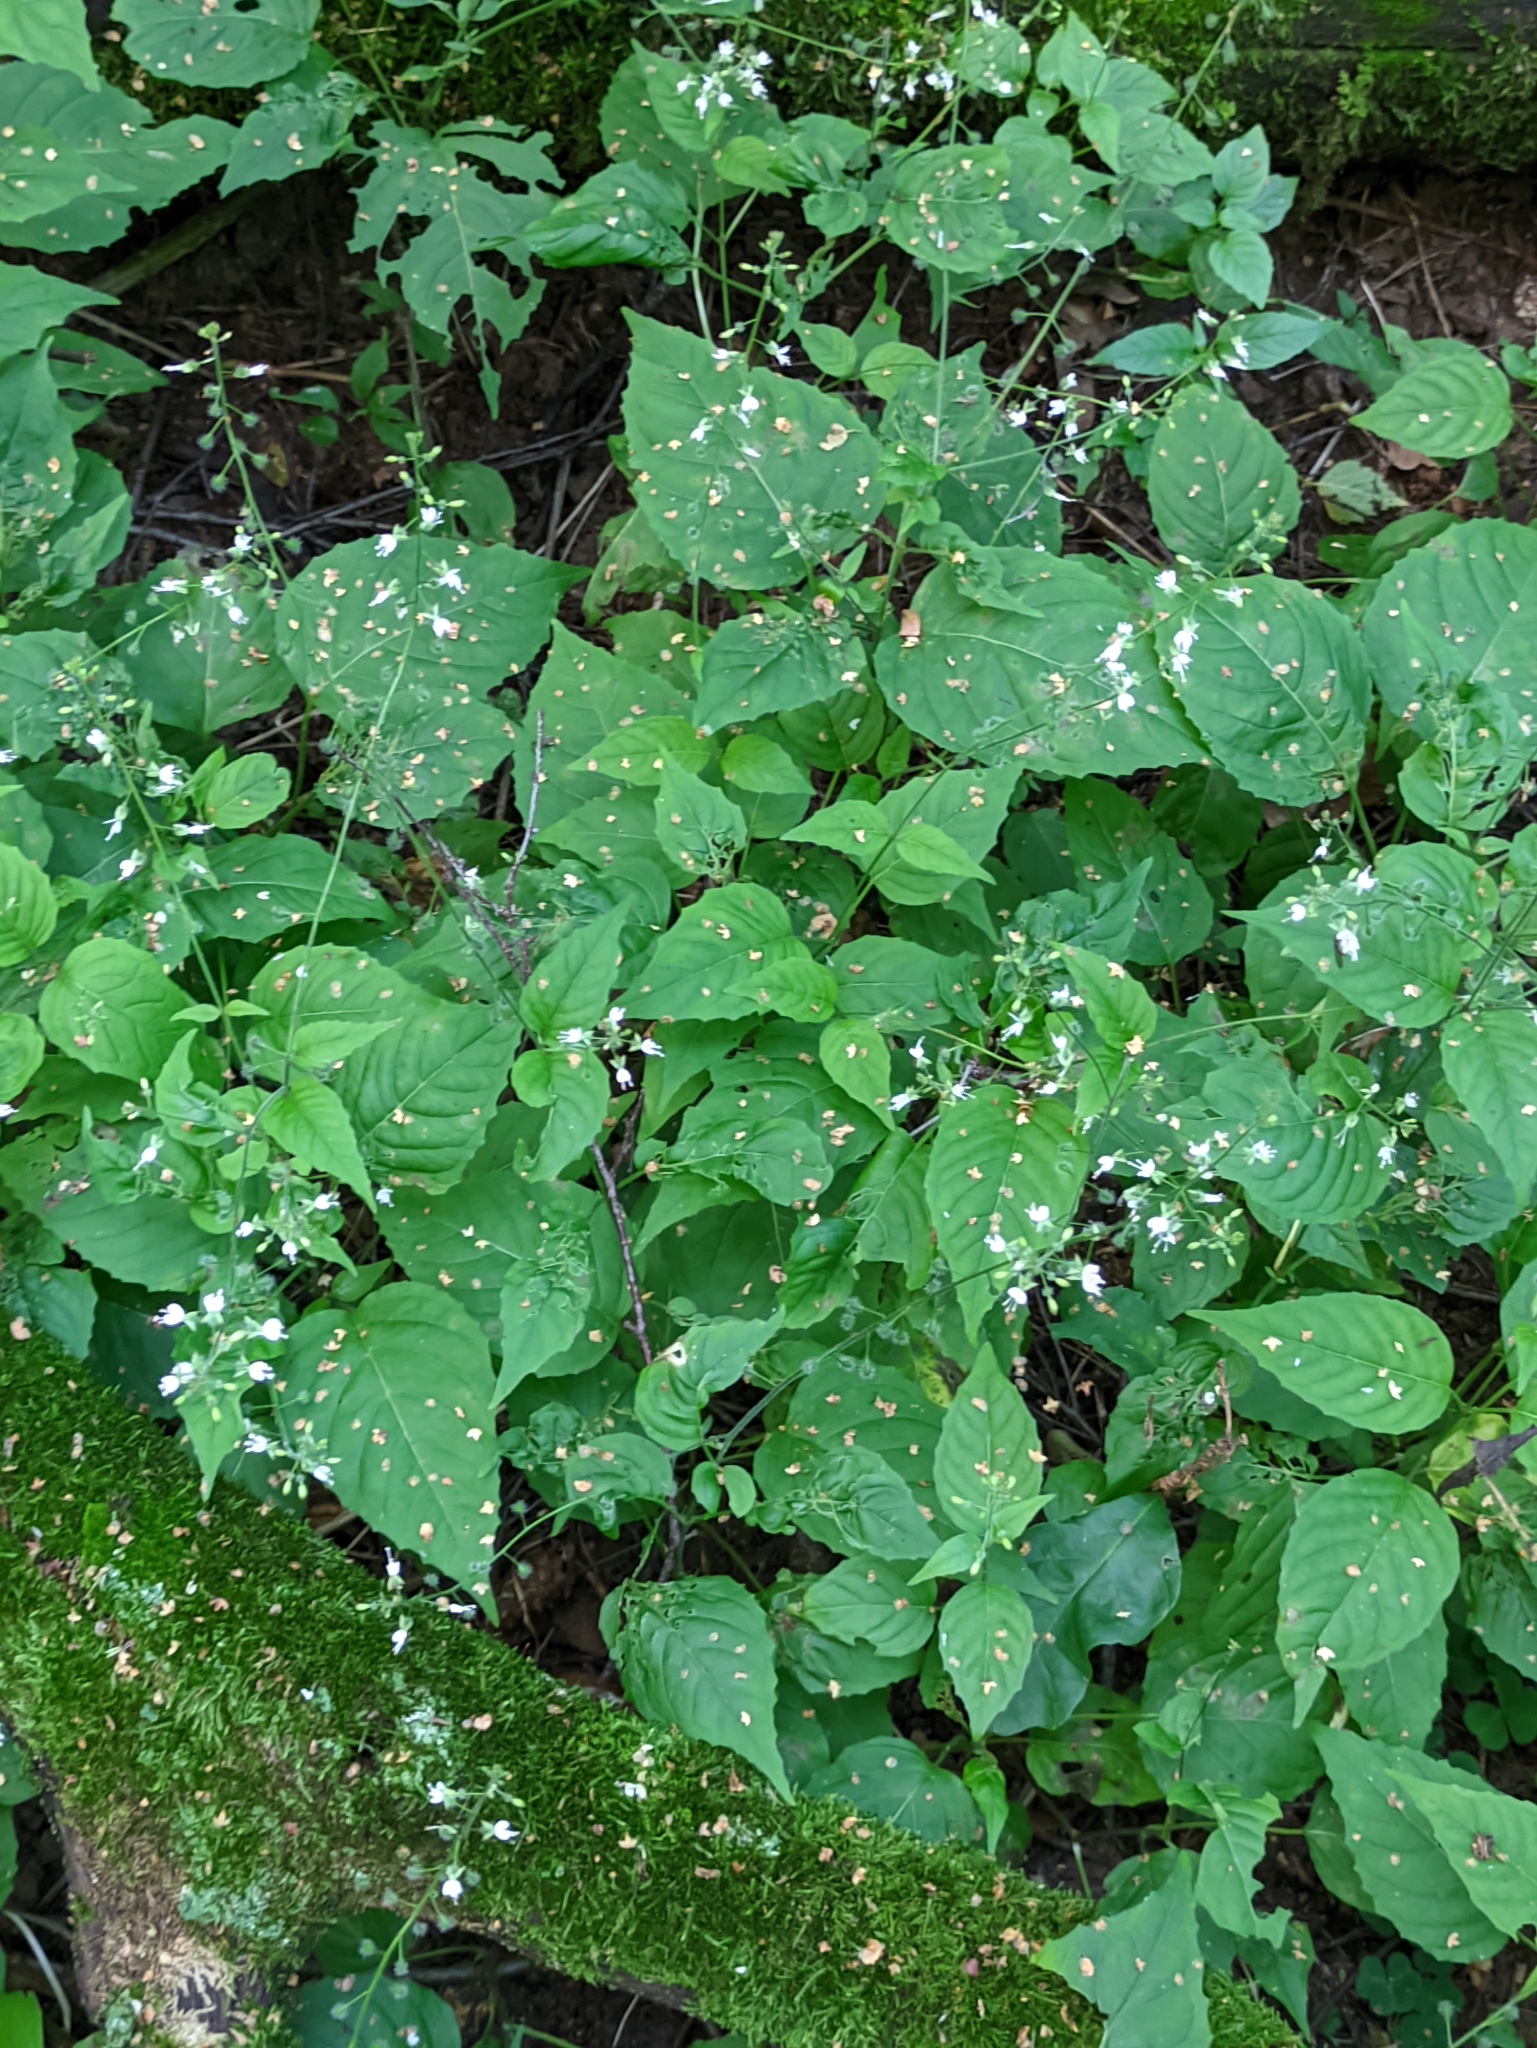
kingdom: Plantae
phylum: Tracheophyta
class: Magnoliopsida
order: Myrtales
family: Onagraceae
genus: Circaea
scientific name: Circaea lutetiana
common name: Enchanter's-nightshade
